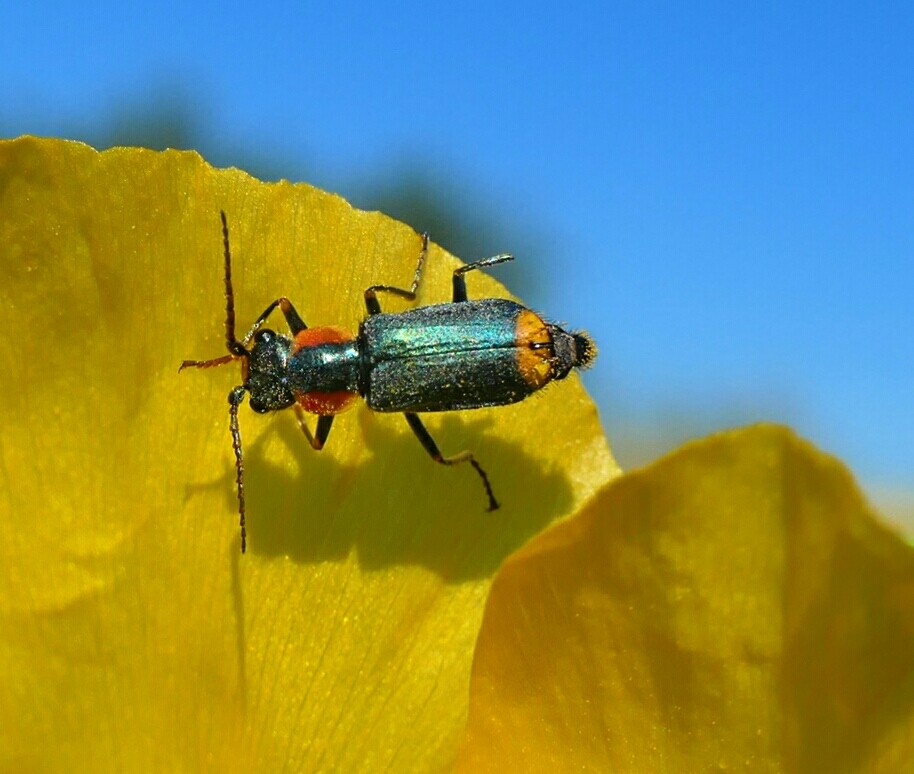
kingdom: Animalia
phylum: Arthropoda
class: Insecta
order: Coleoptera
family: Malachiidae
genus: Clanoptilus
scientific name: Clanoptilus marginellus
